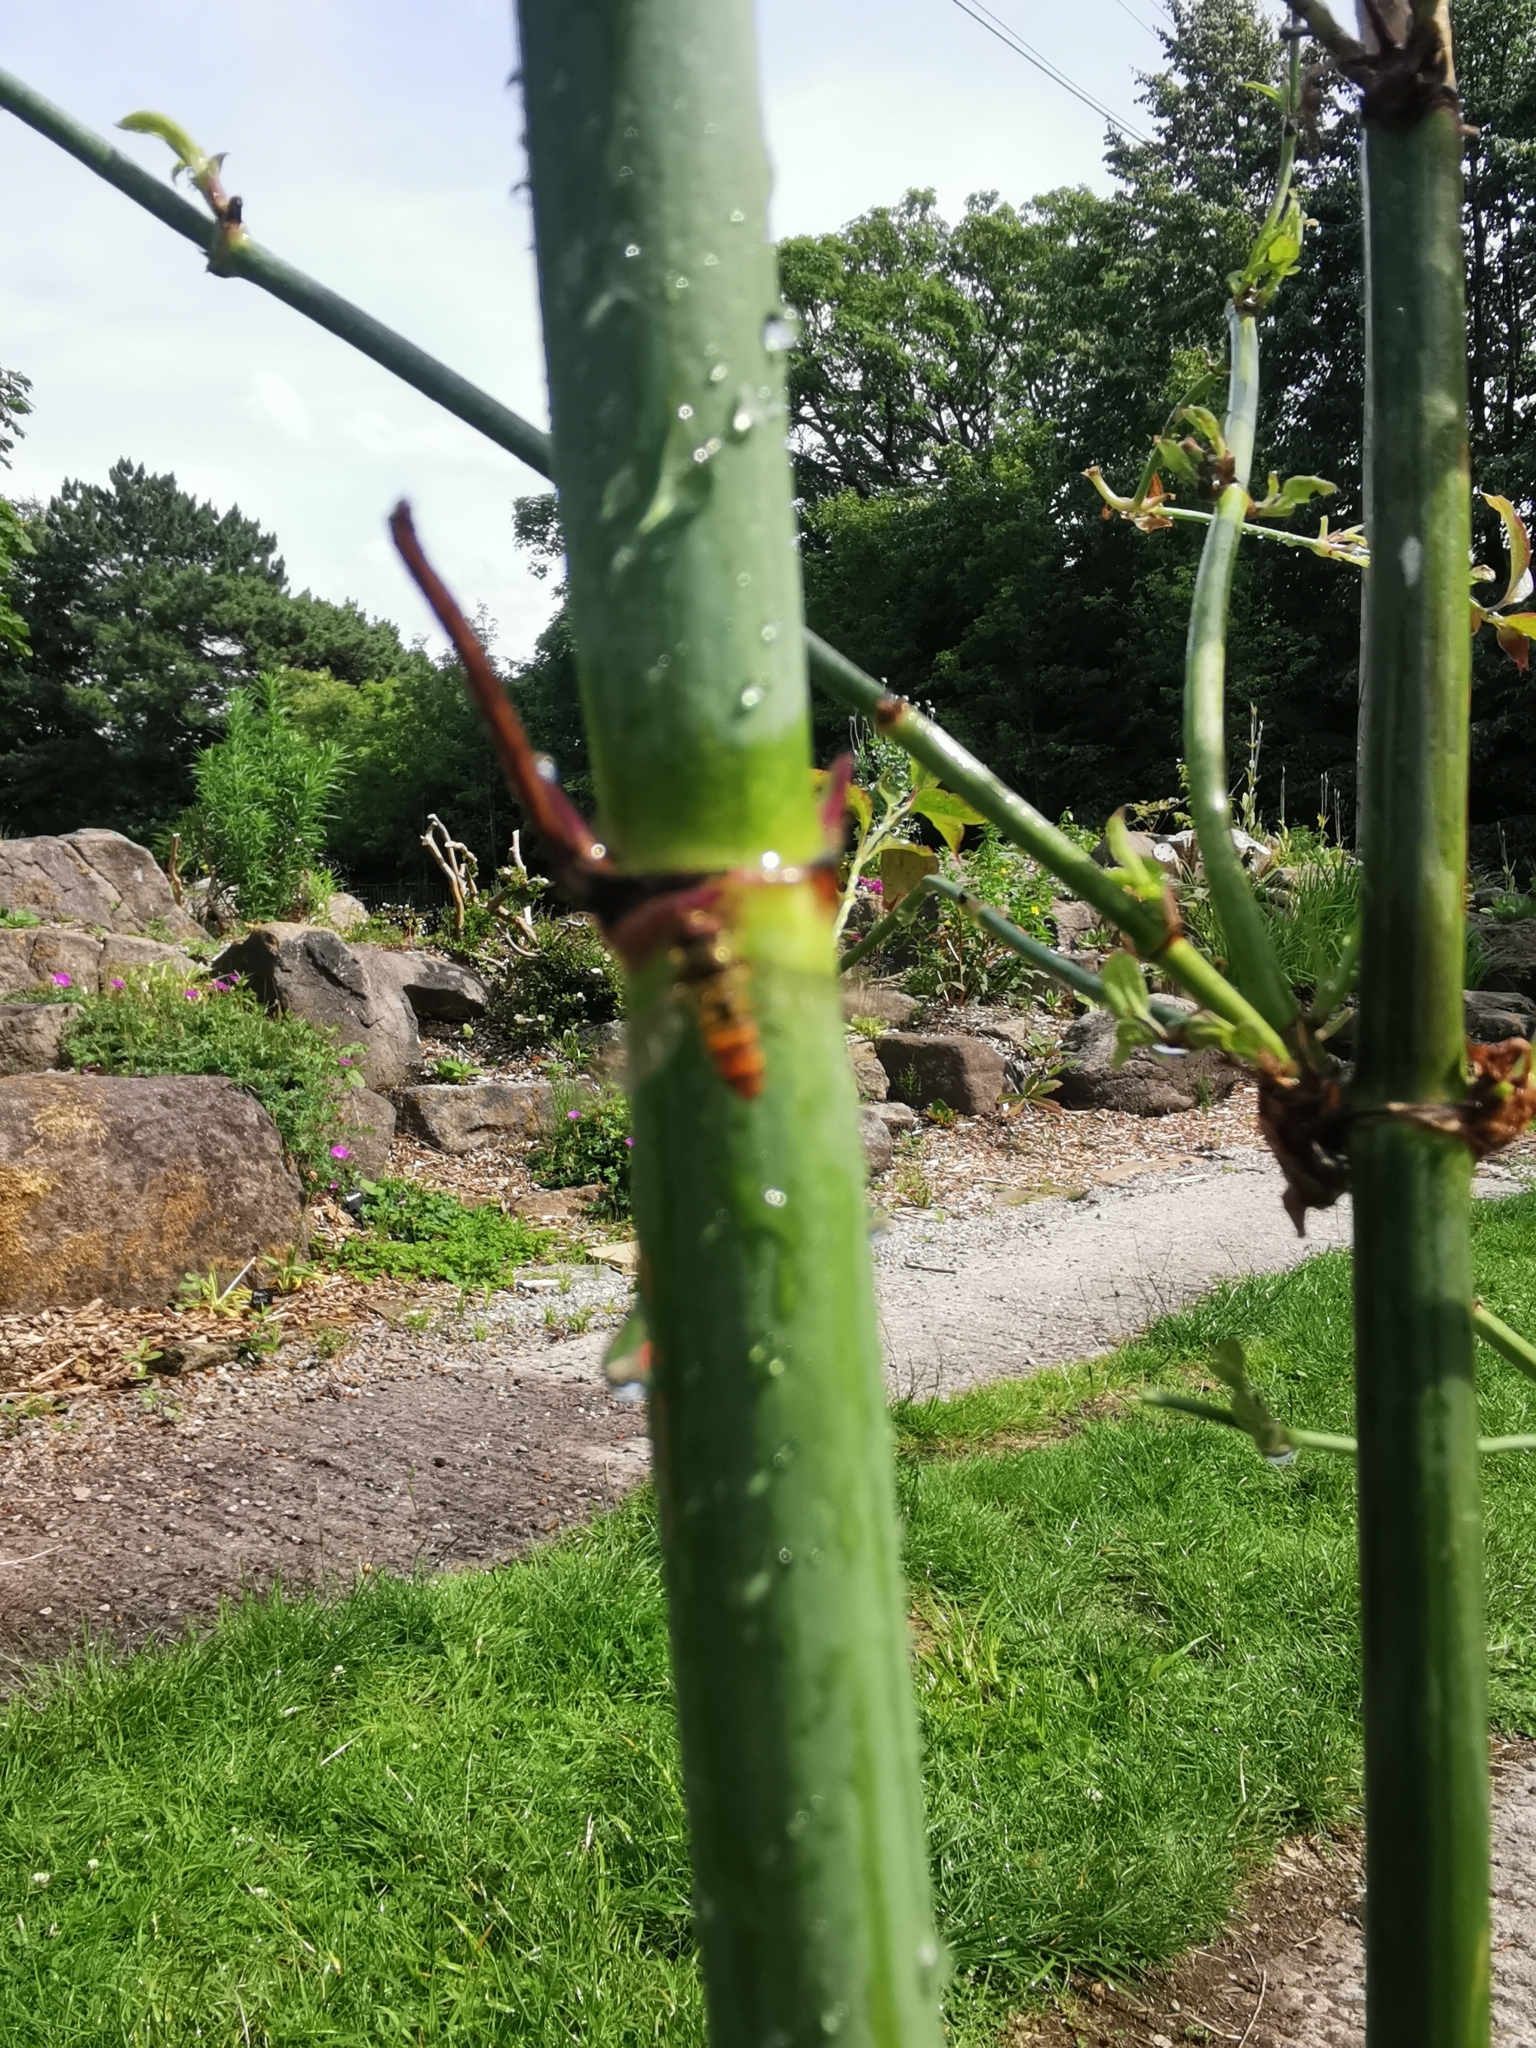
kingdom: Animalia
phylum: Arthropoda
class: Insecta
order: Diptera
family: Syrphidae
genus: Episyrphus
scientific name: Episyrphus balteatus
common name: Marmalade hoverfly
